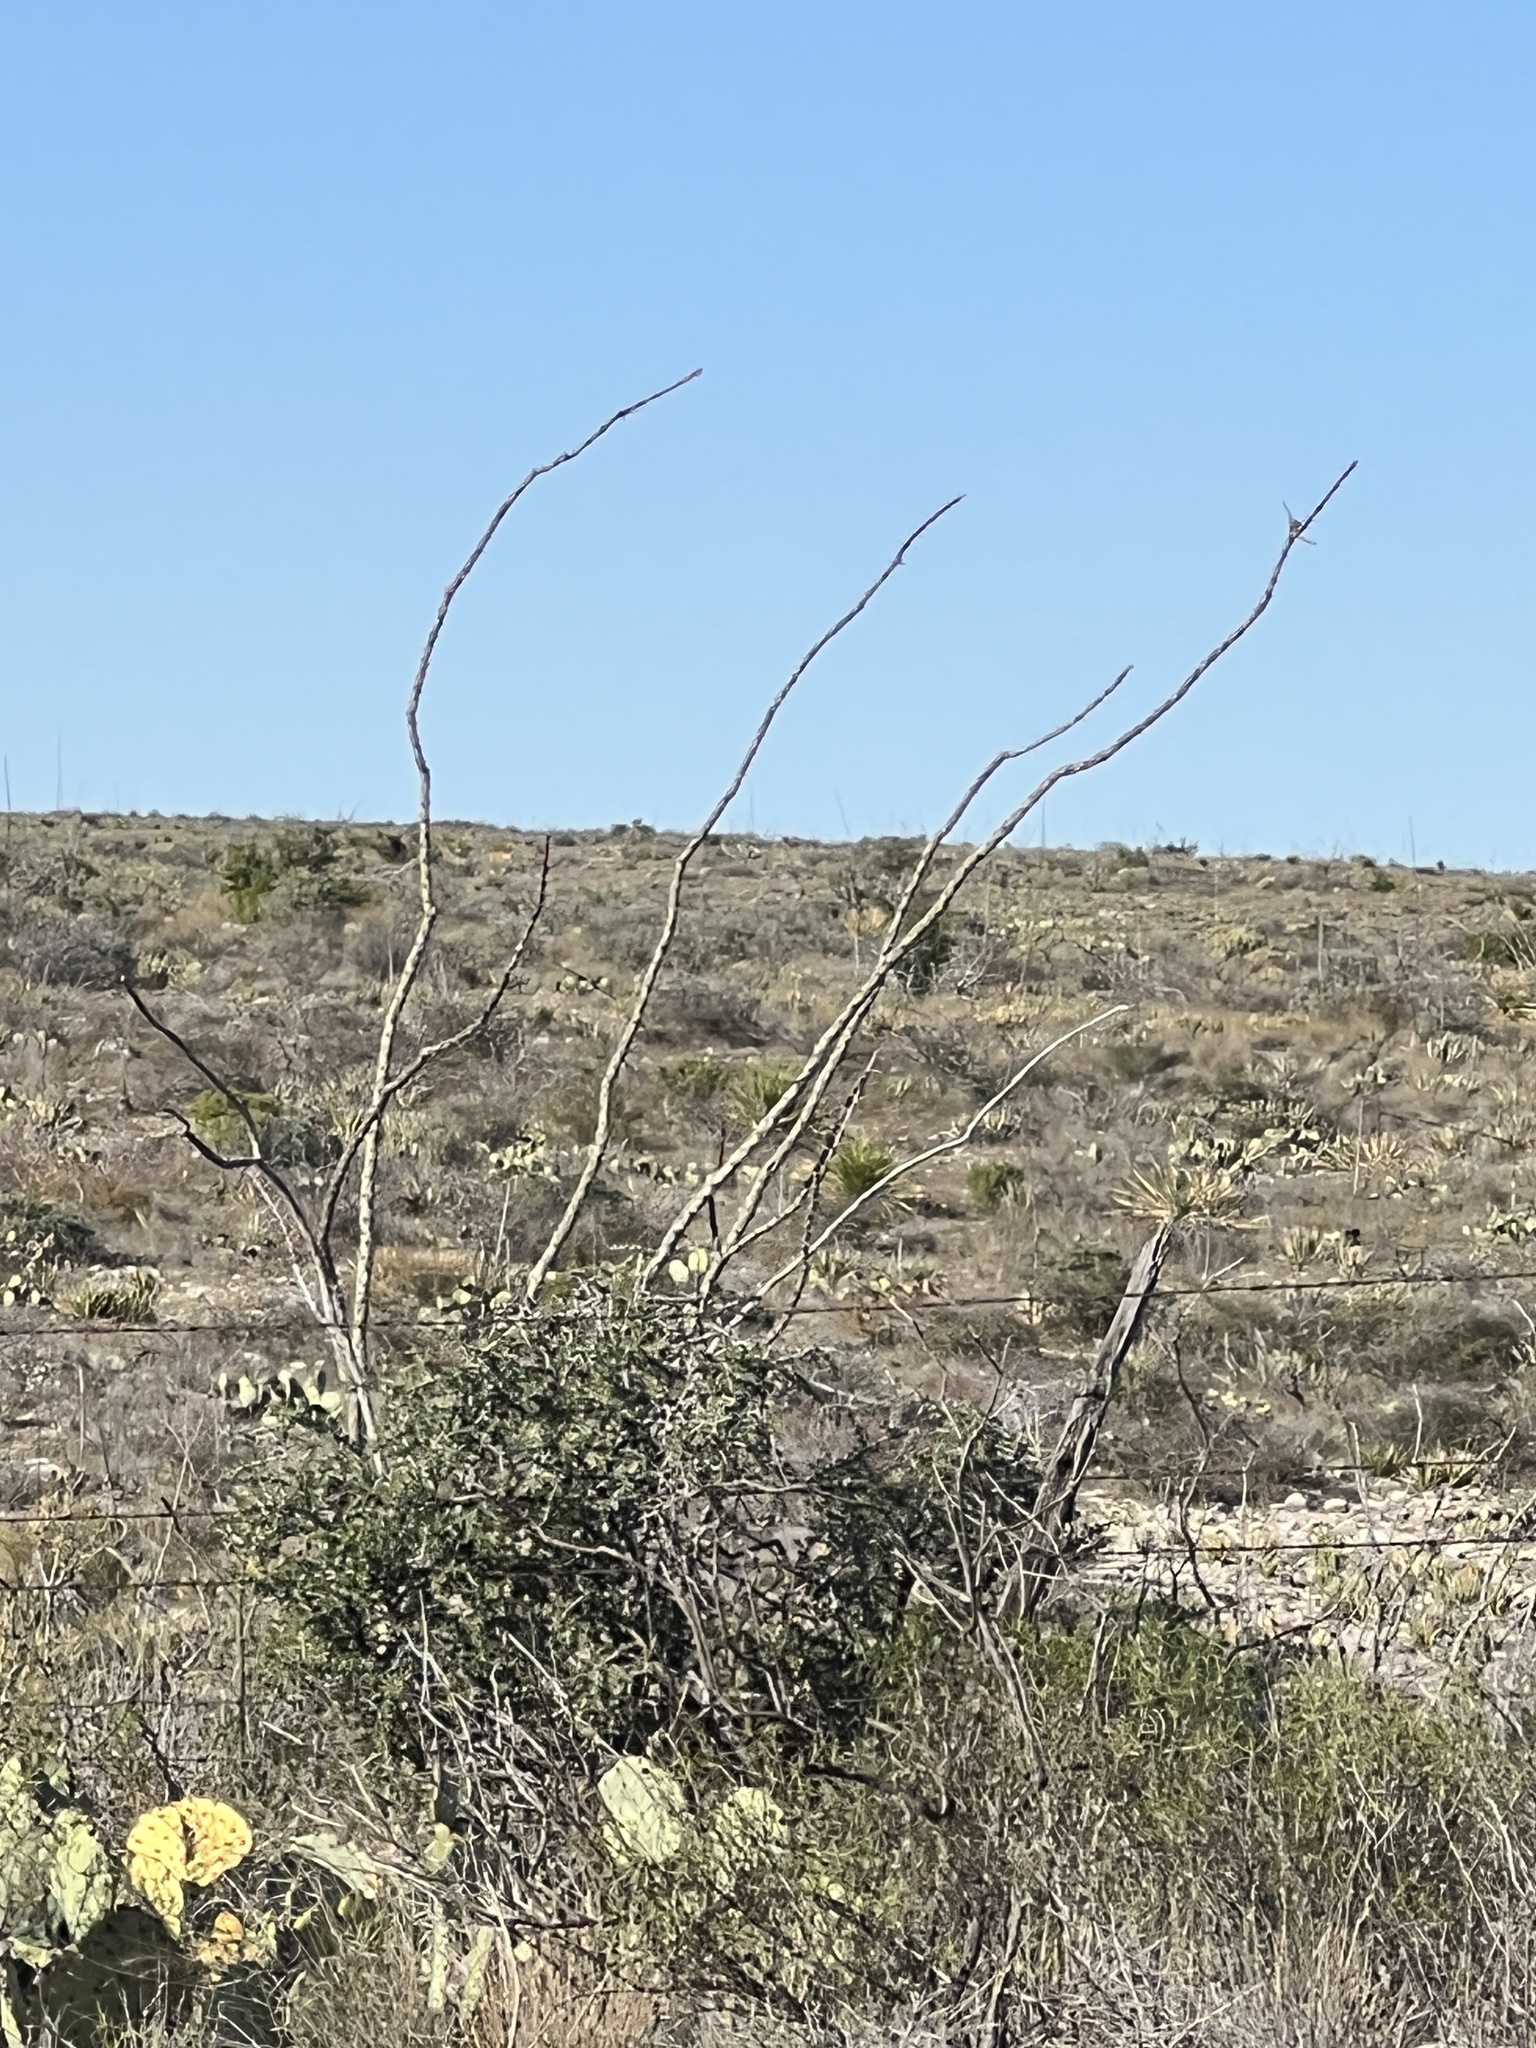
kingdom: Plantae
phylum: Tracheophyta
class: Magnoliopsida
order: Ericales
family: Fouquieriaceae
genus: Fouquieria
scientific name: Fouquieria splendens
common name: Vine-cactus
